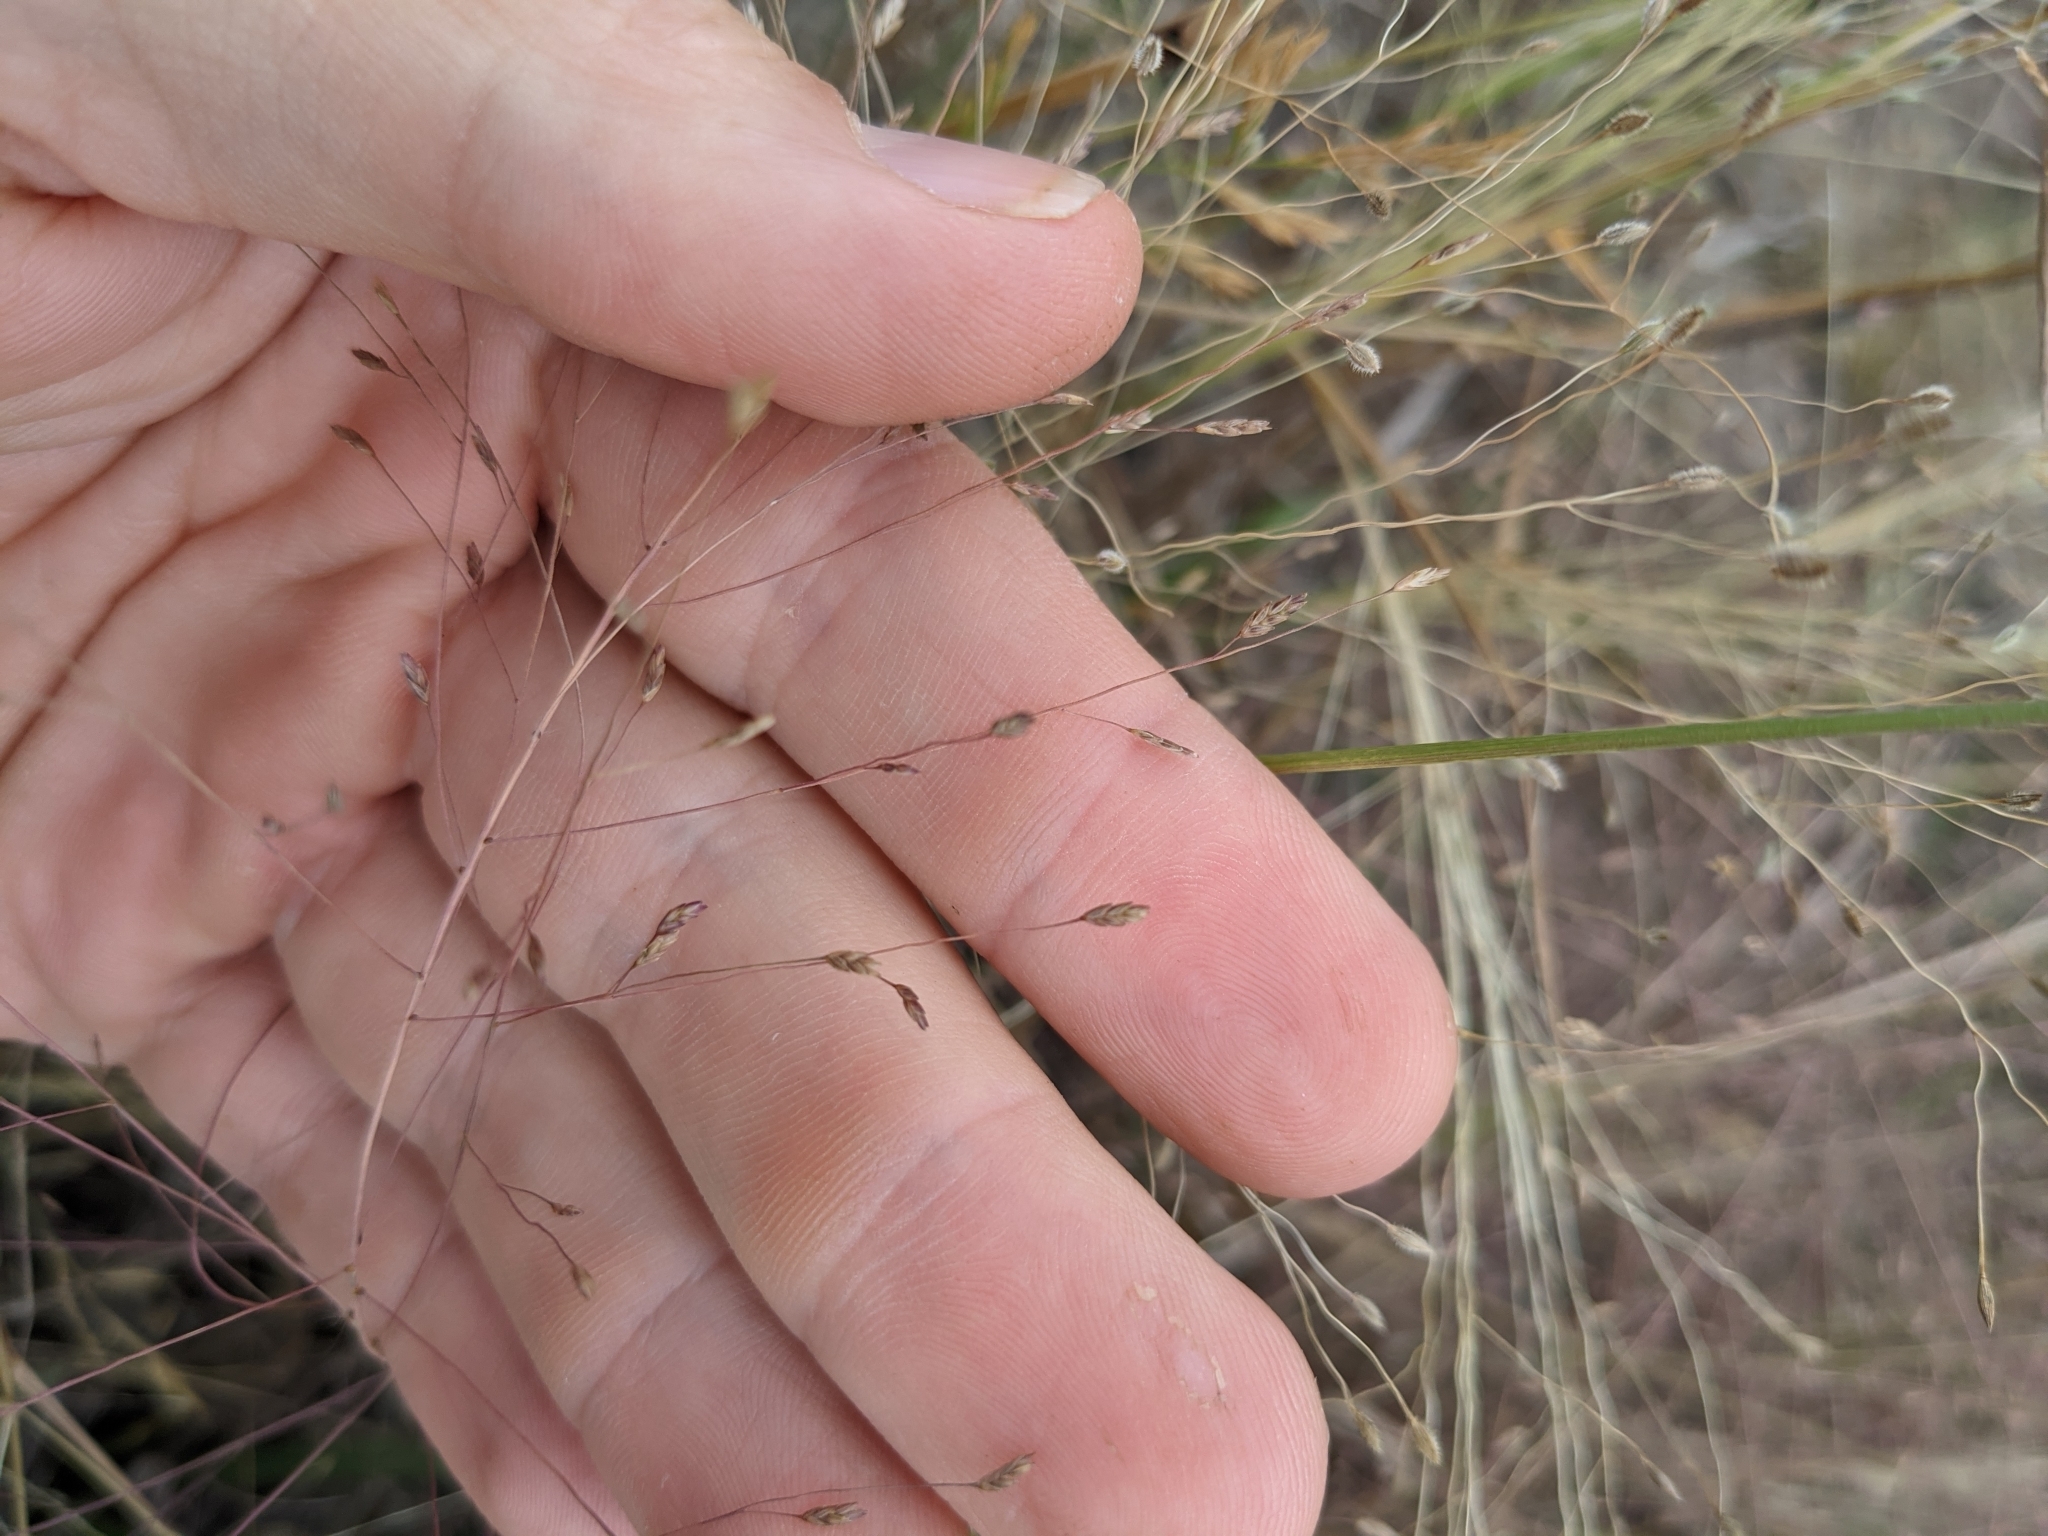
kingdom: Plantae
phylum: Tracheophyta
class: Liliopsida
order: Poales
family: Poaceae
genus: Eragrostis
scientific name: Eragrostis spectabilis
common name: Petticoat-climber
